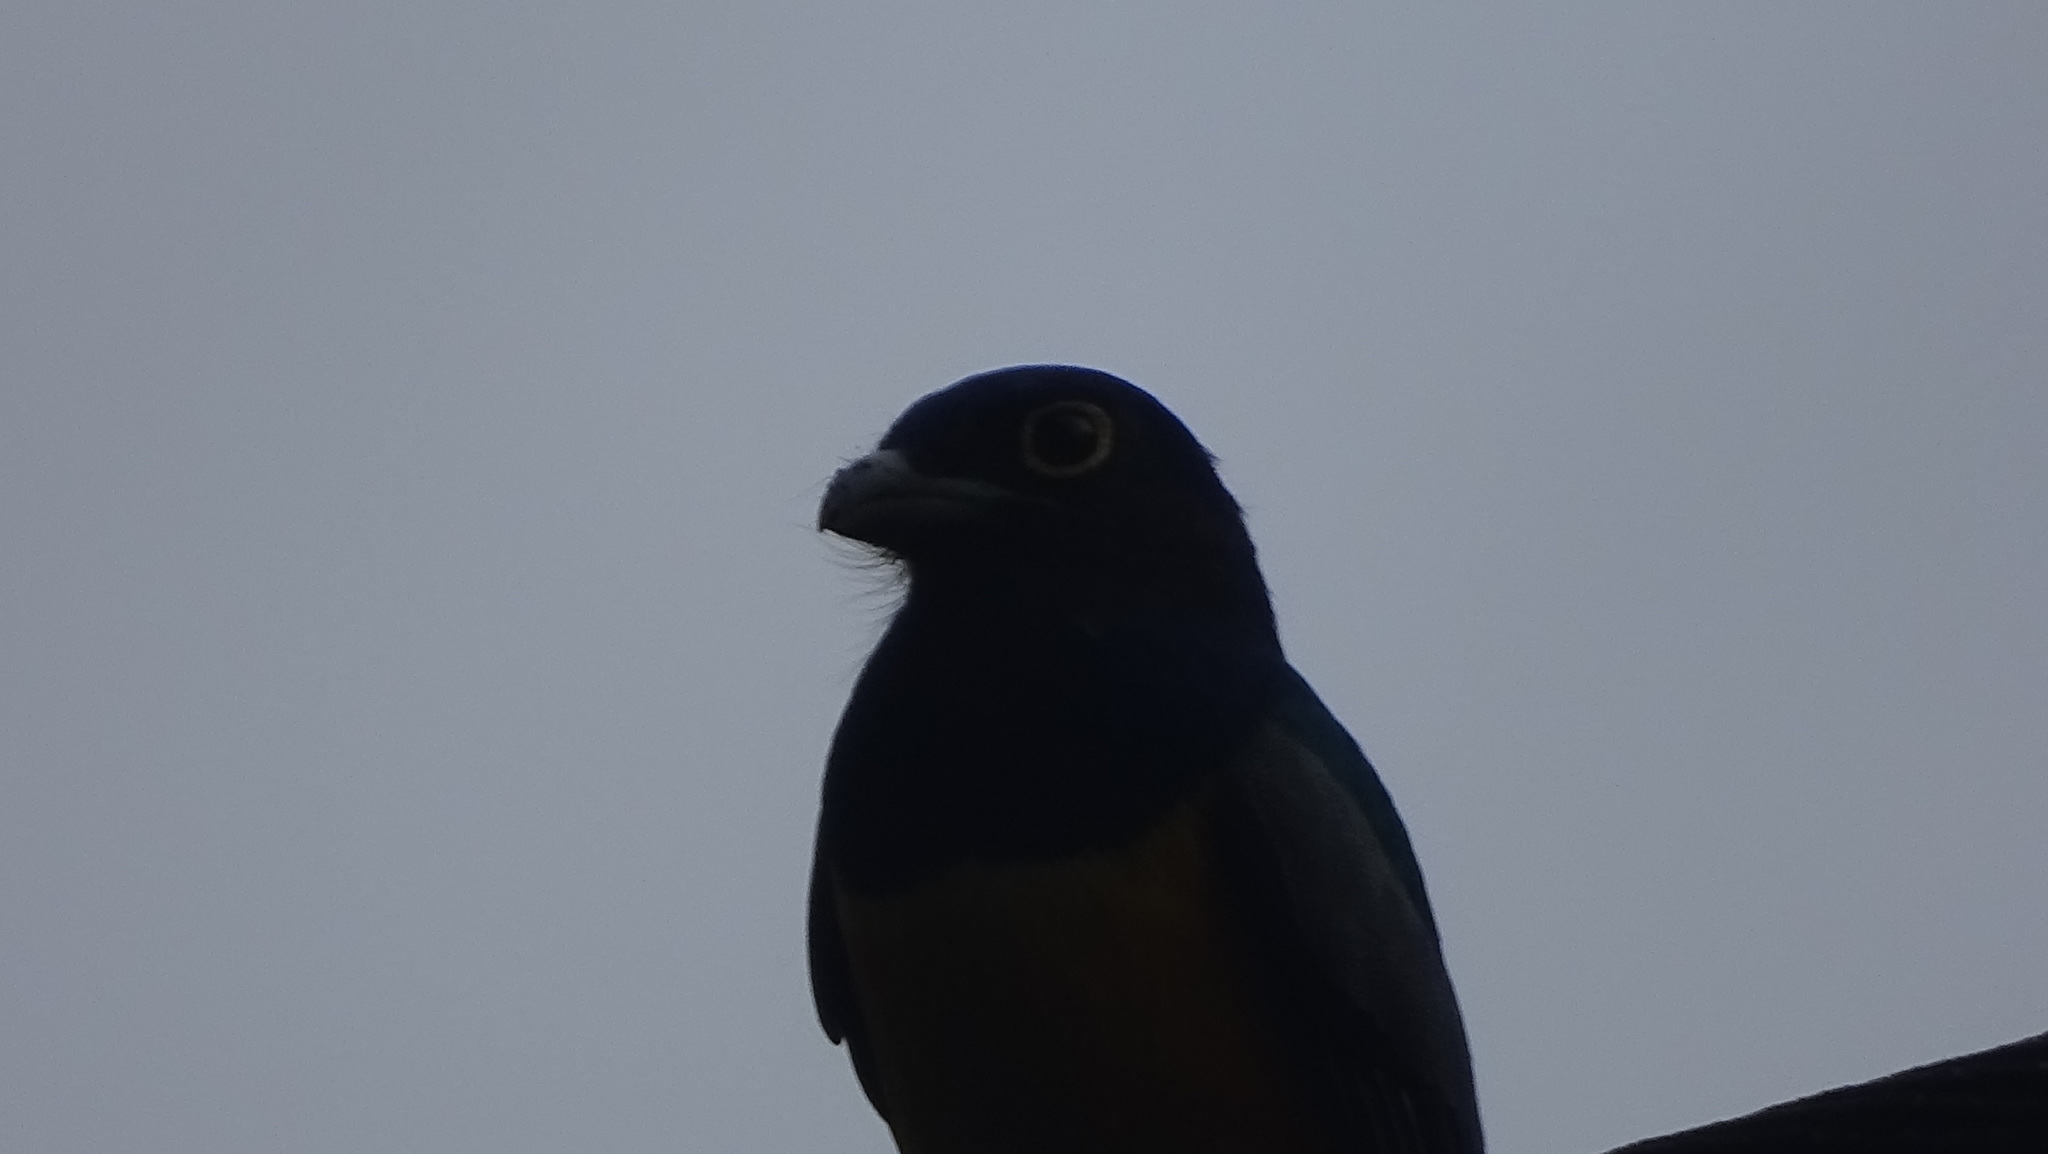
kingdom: Animalia
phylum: Chordata
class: Aves
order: Trogoniformes
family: Trogonidae
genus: Trogon
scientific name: Trogon caligatus
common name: Gartered trogon
